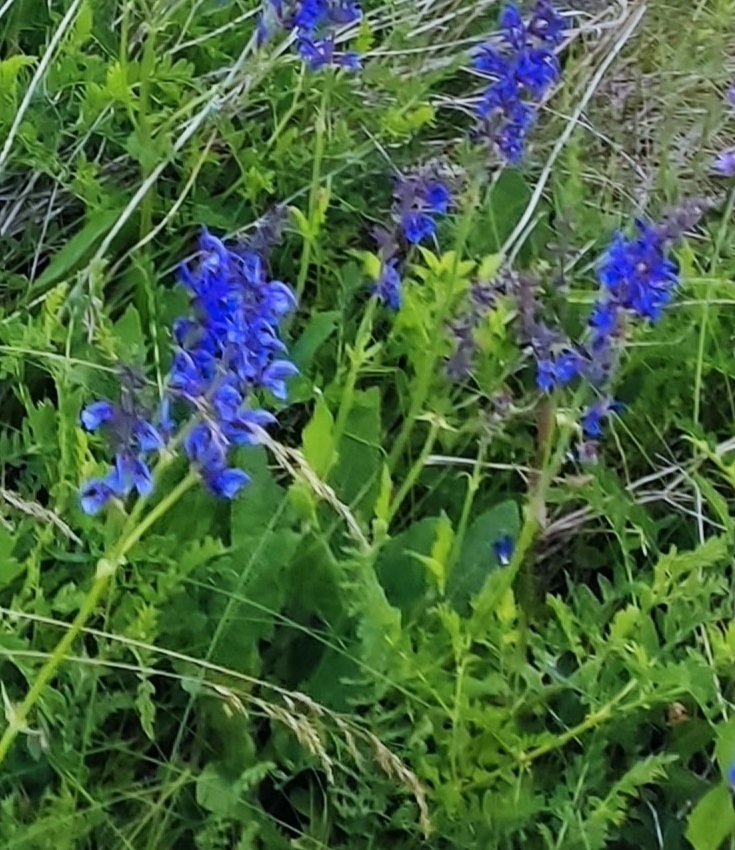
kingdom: Plantae
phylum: Tracheophyta
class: Magnoliopsida
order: Lamiales
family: Lamiaceae
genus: Salvia
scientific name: Salvia pratensis
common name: Meadow sage
